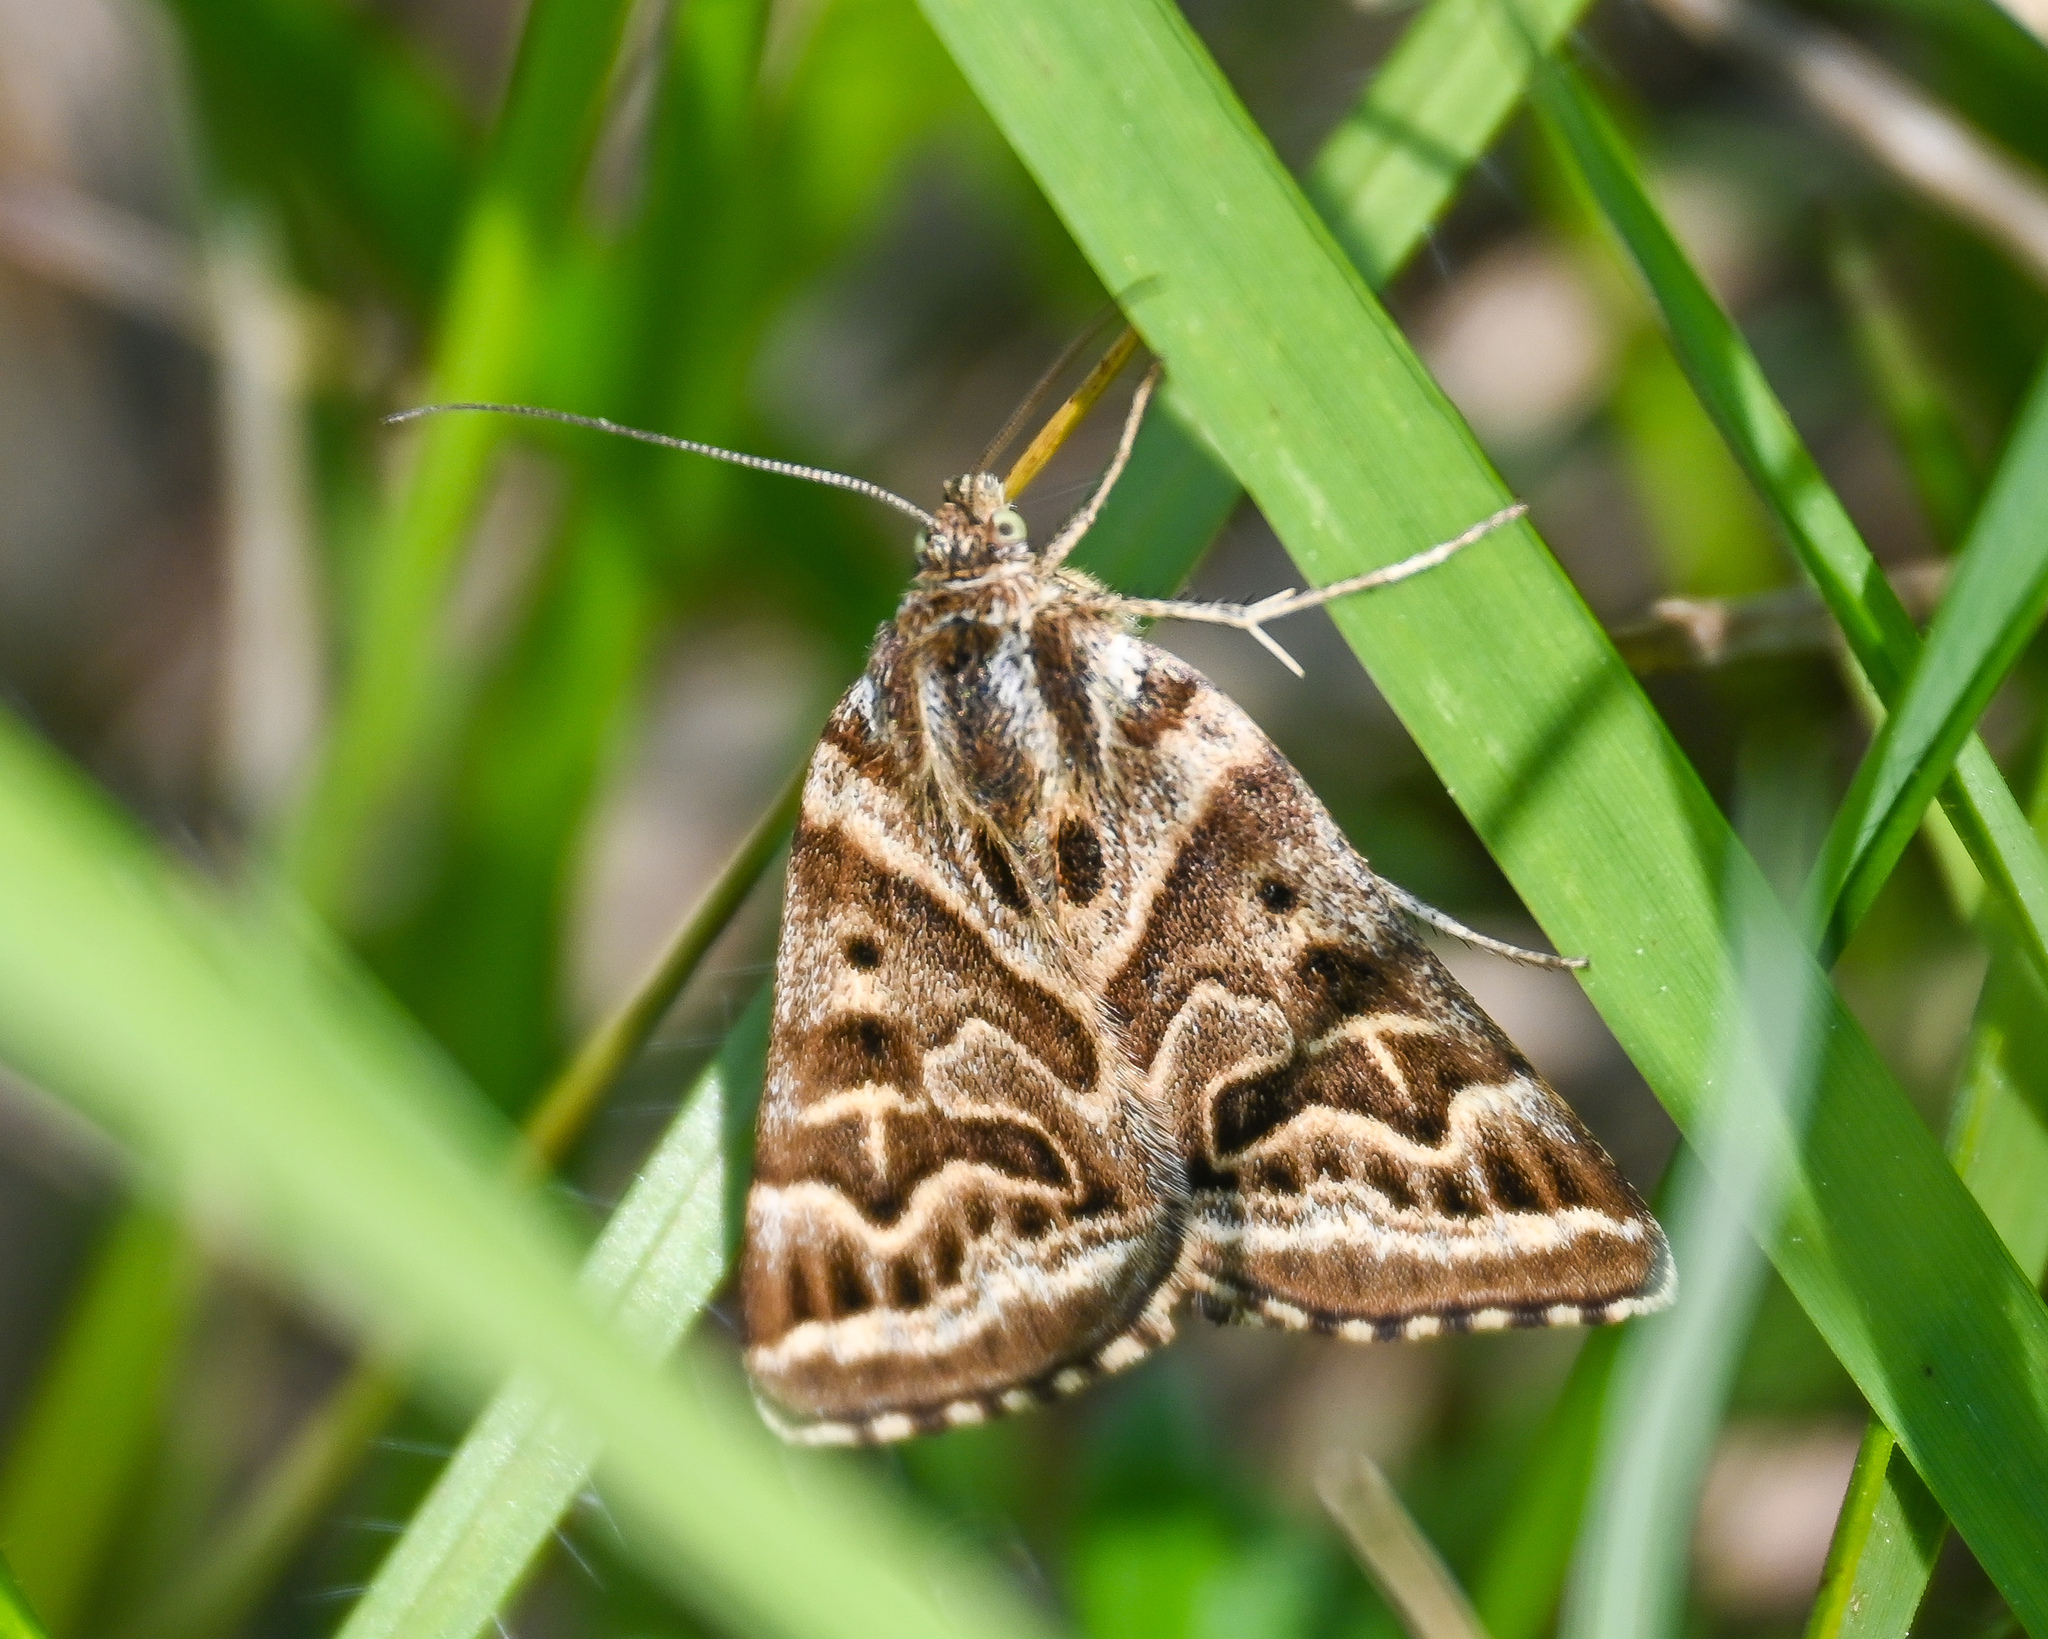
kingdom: Animalia
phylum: Arthropoda
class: Insecta
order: Lepidoptera
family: Erebidae
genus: Callistege
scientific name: Callistege mi
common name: Mother shipton
